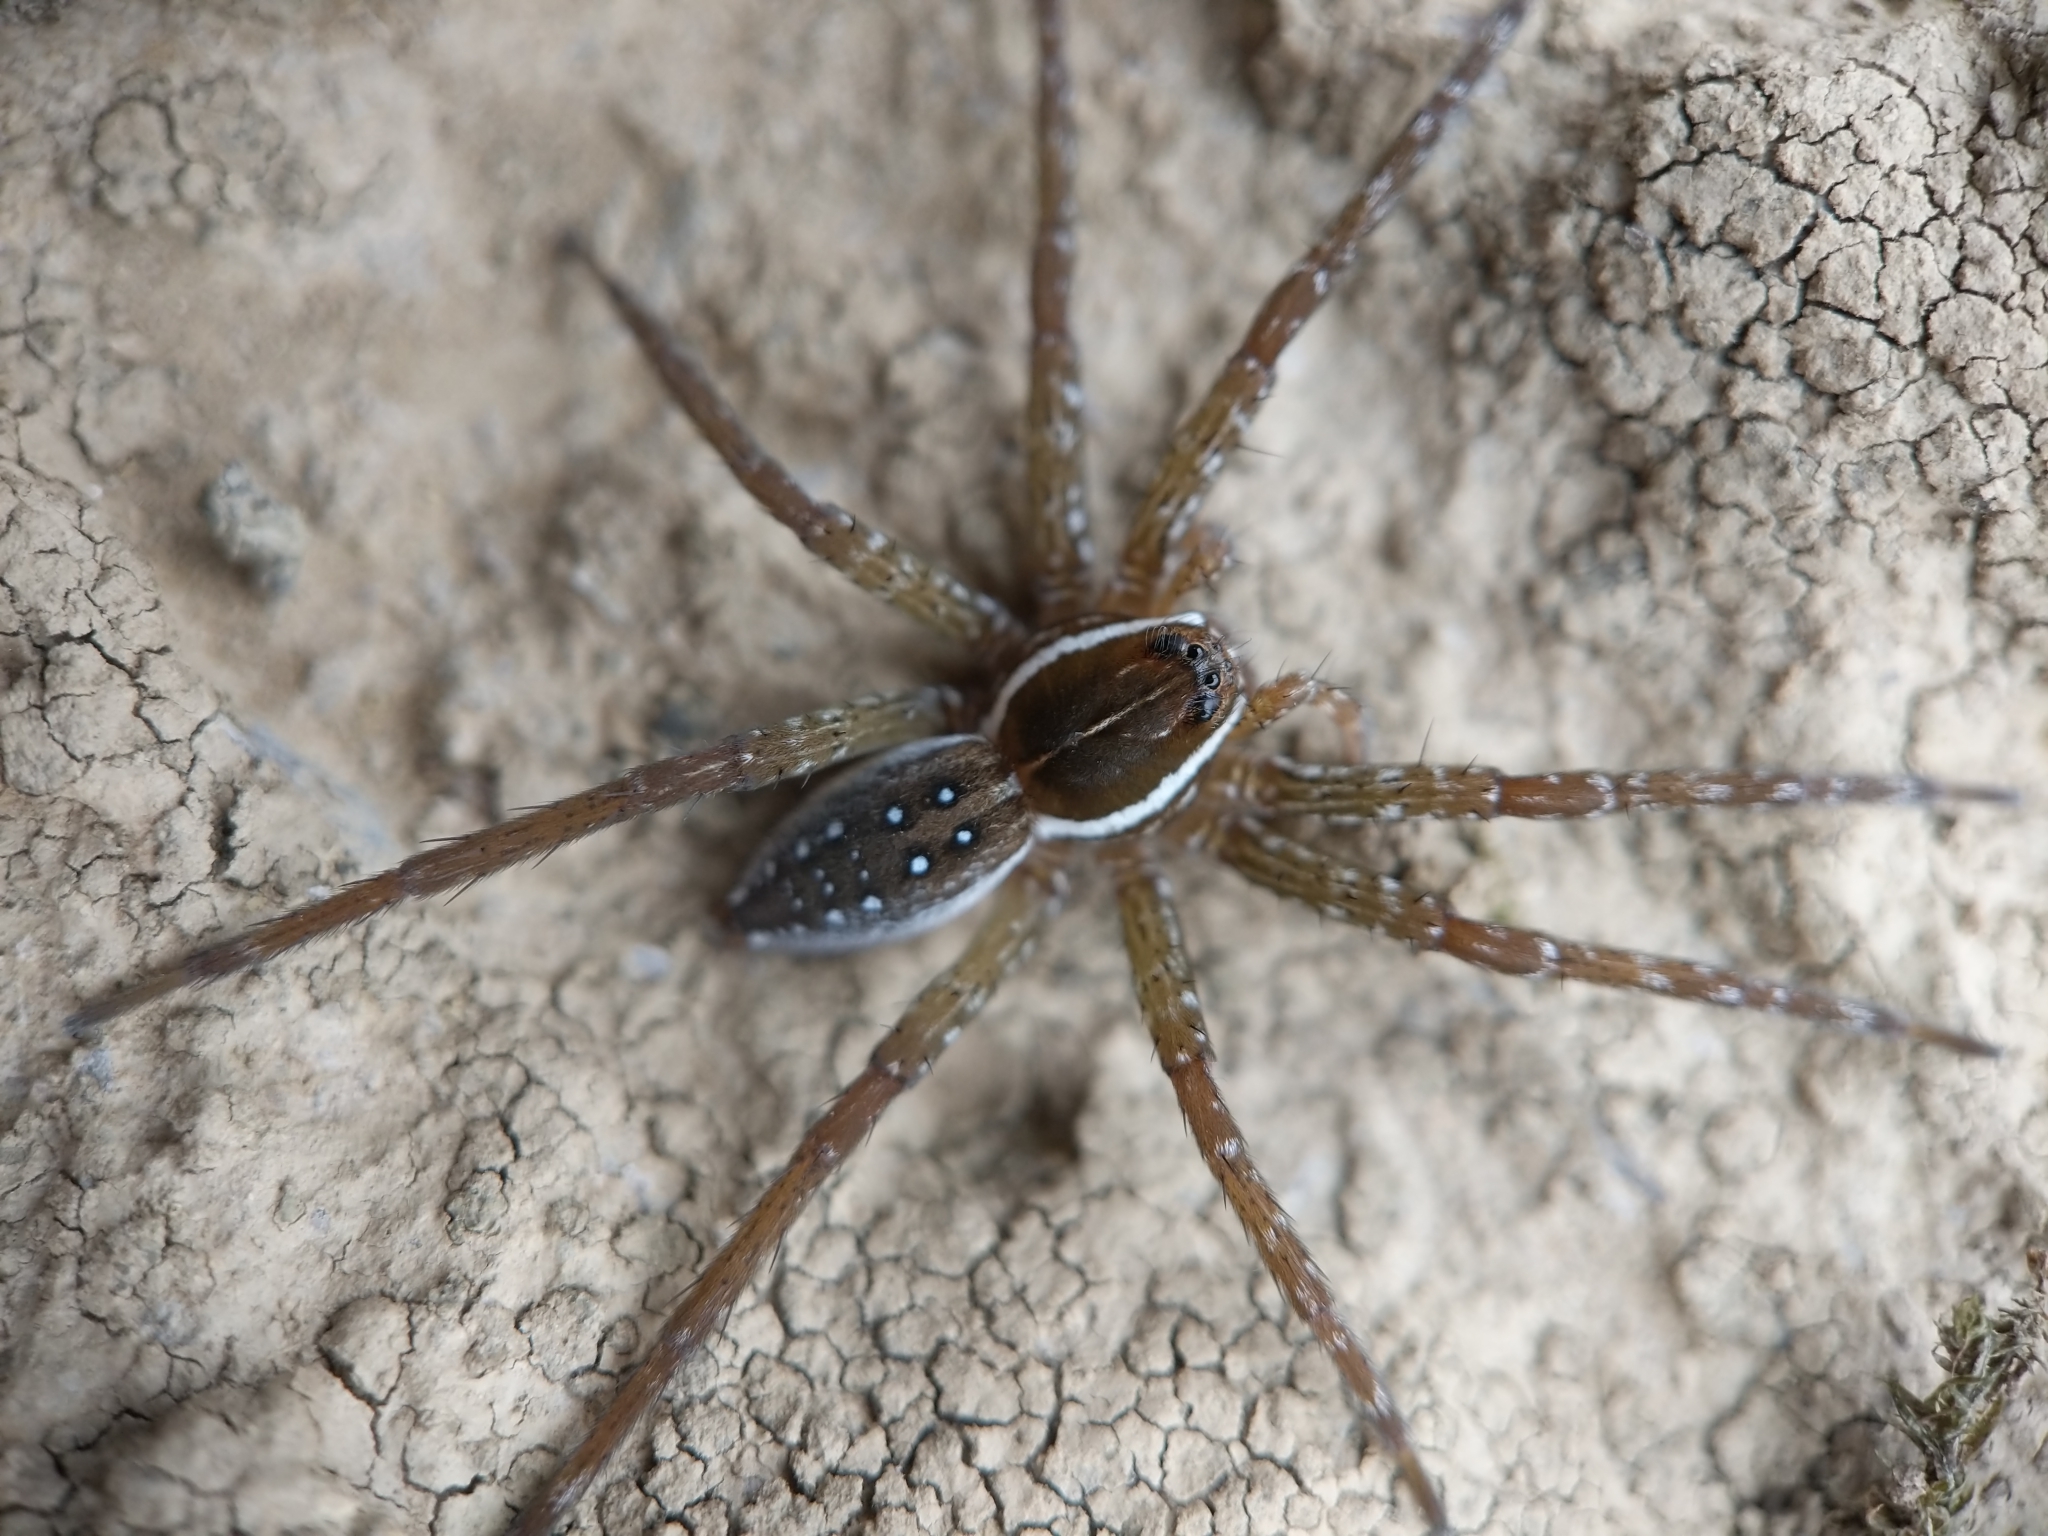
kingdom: Animalia
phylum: Arthropoda
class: Arachnida
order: Araneae
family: Pisauridae
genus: Dolomedes
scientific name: Dolomedes triton
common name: Six-spotted fishing spider
